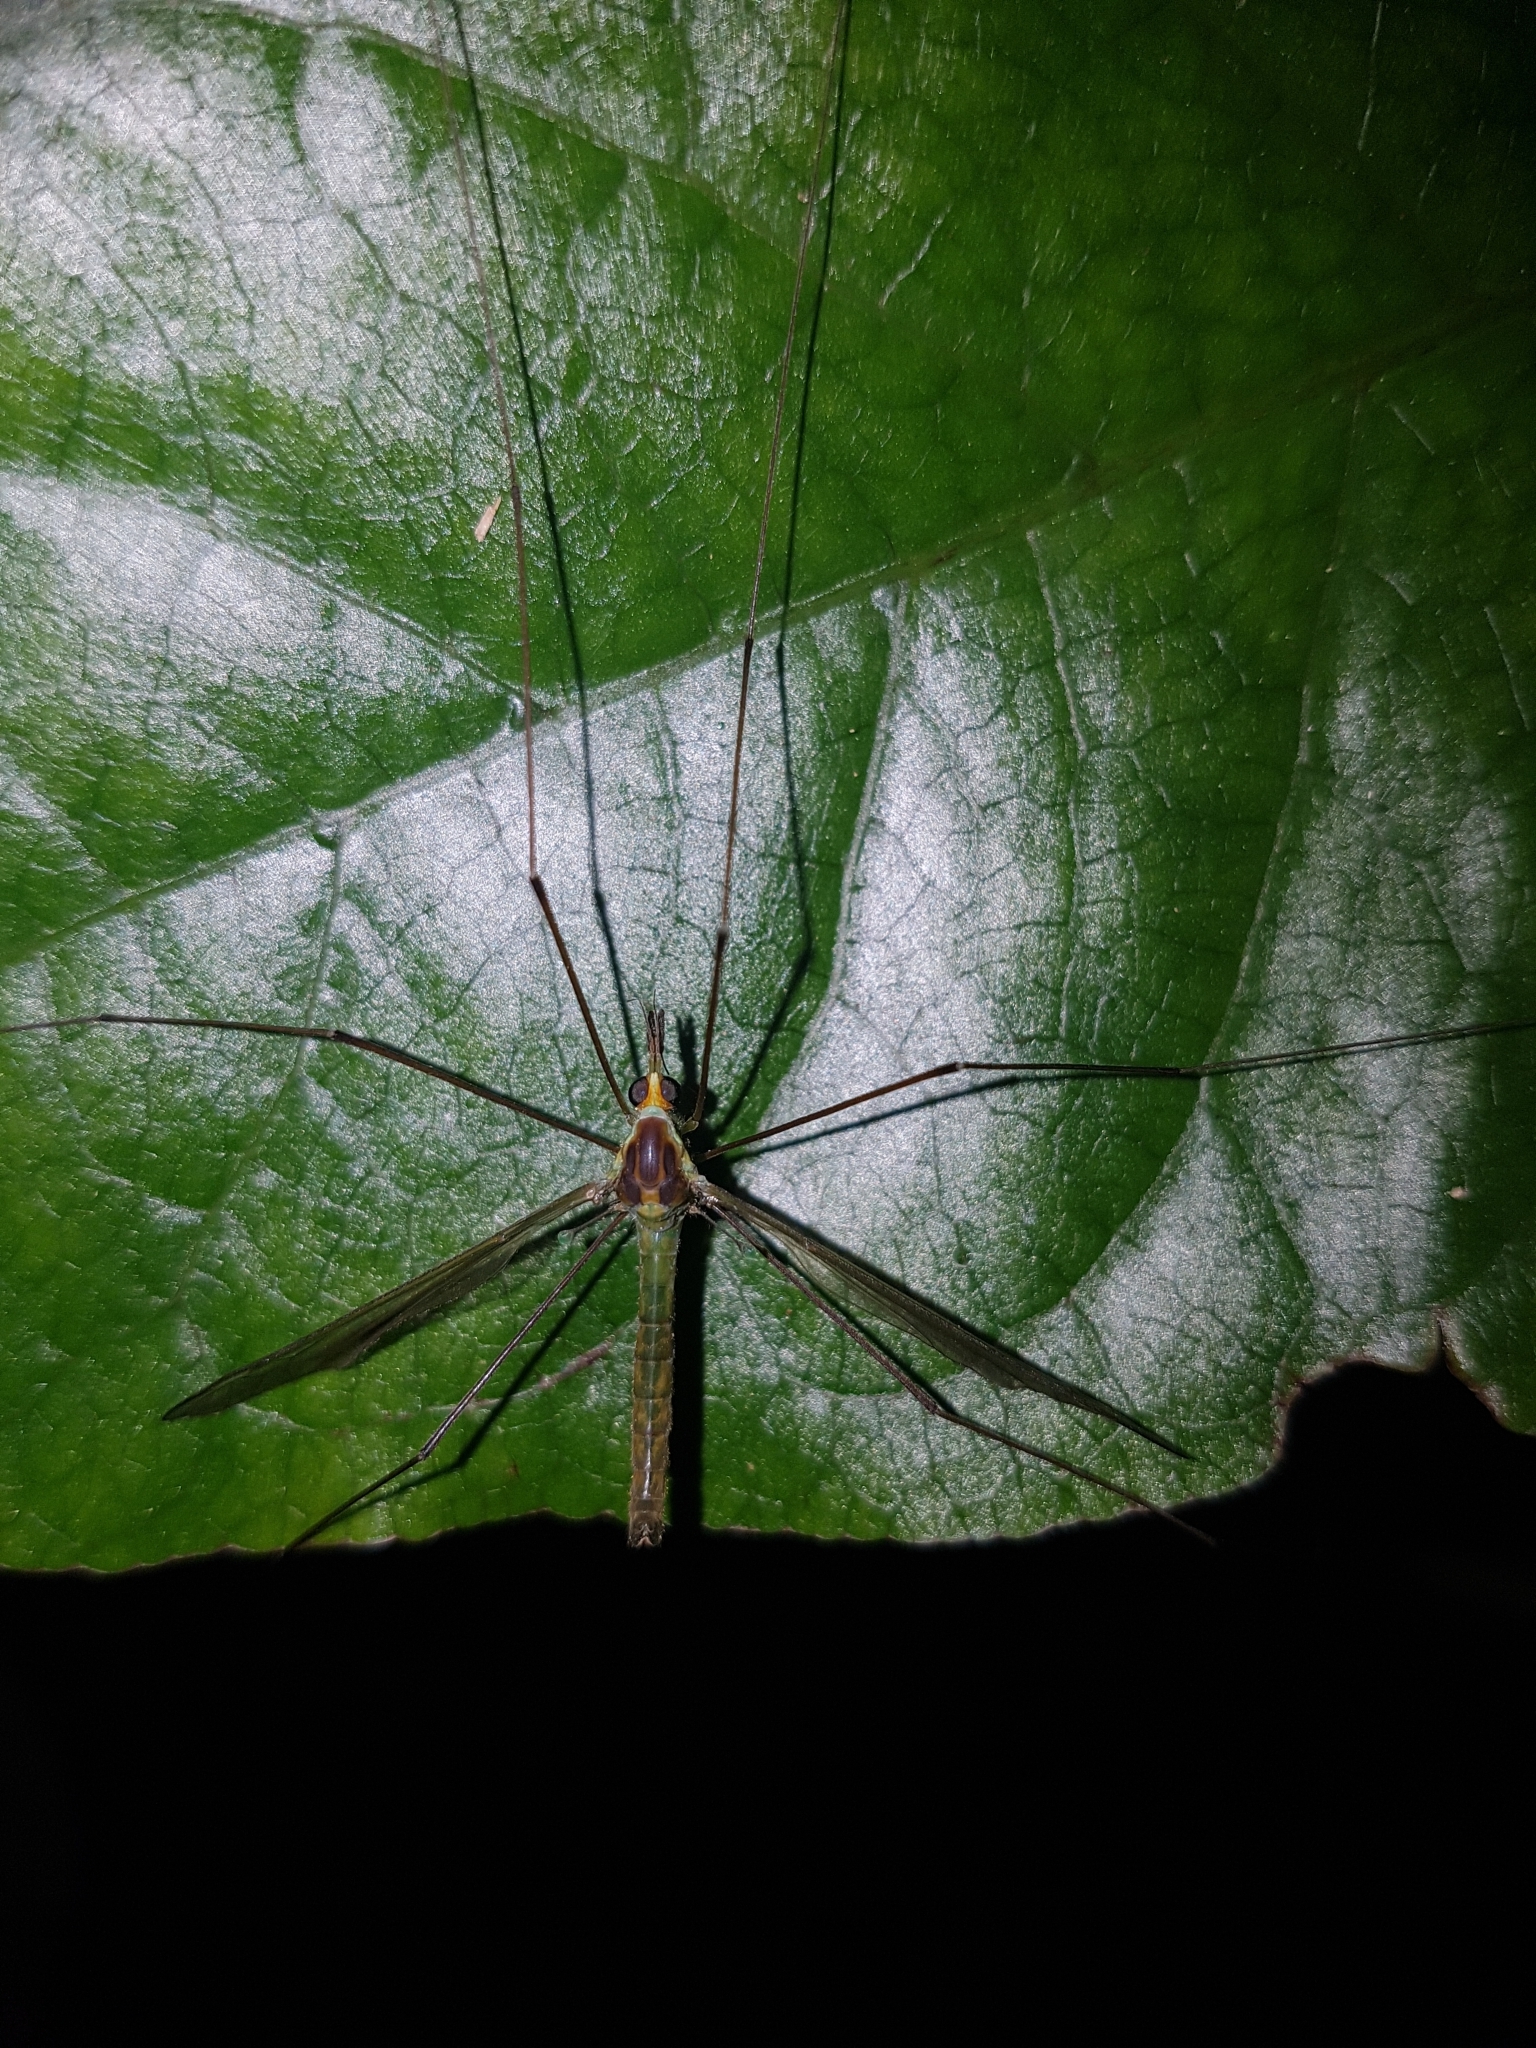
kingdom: Animalia
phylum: Arthropoda
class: Insecta
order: Diptera
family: Tipulidae
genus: Leptotarsus
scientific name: Leptotarsus viridis
